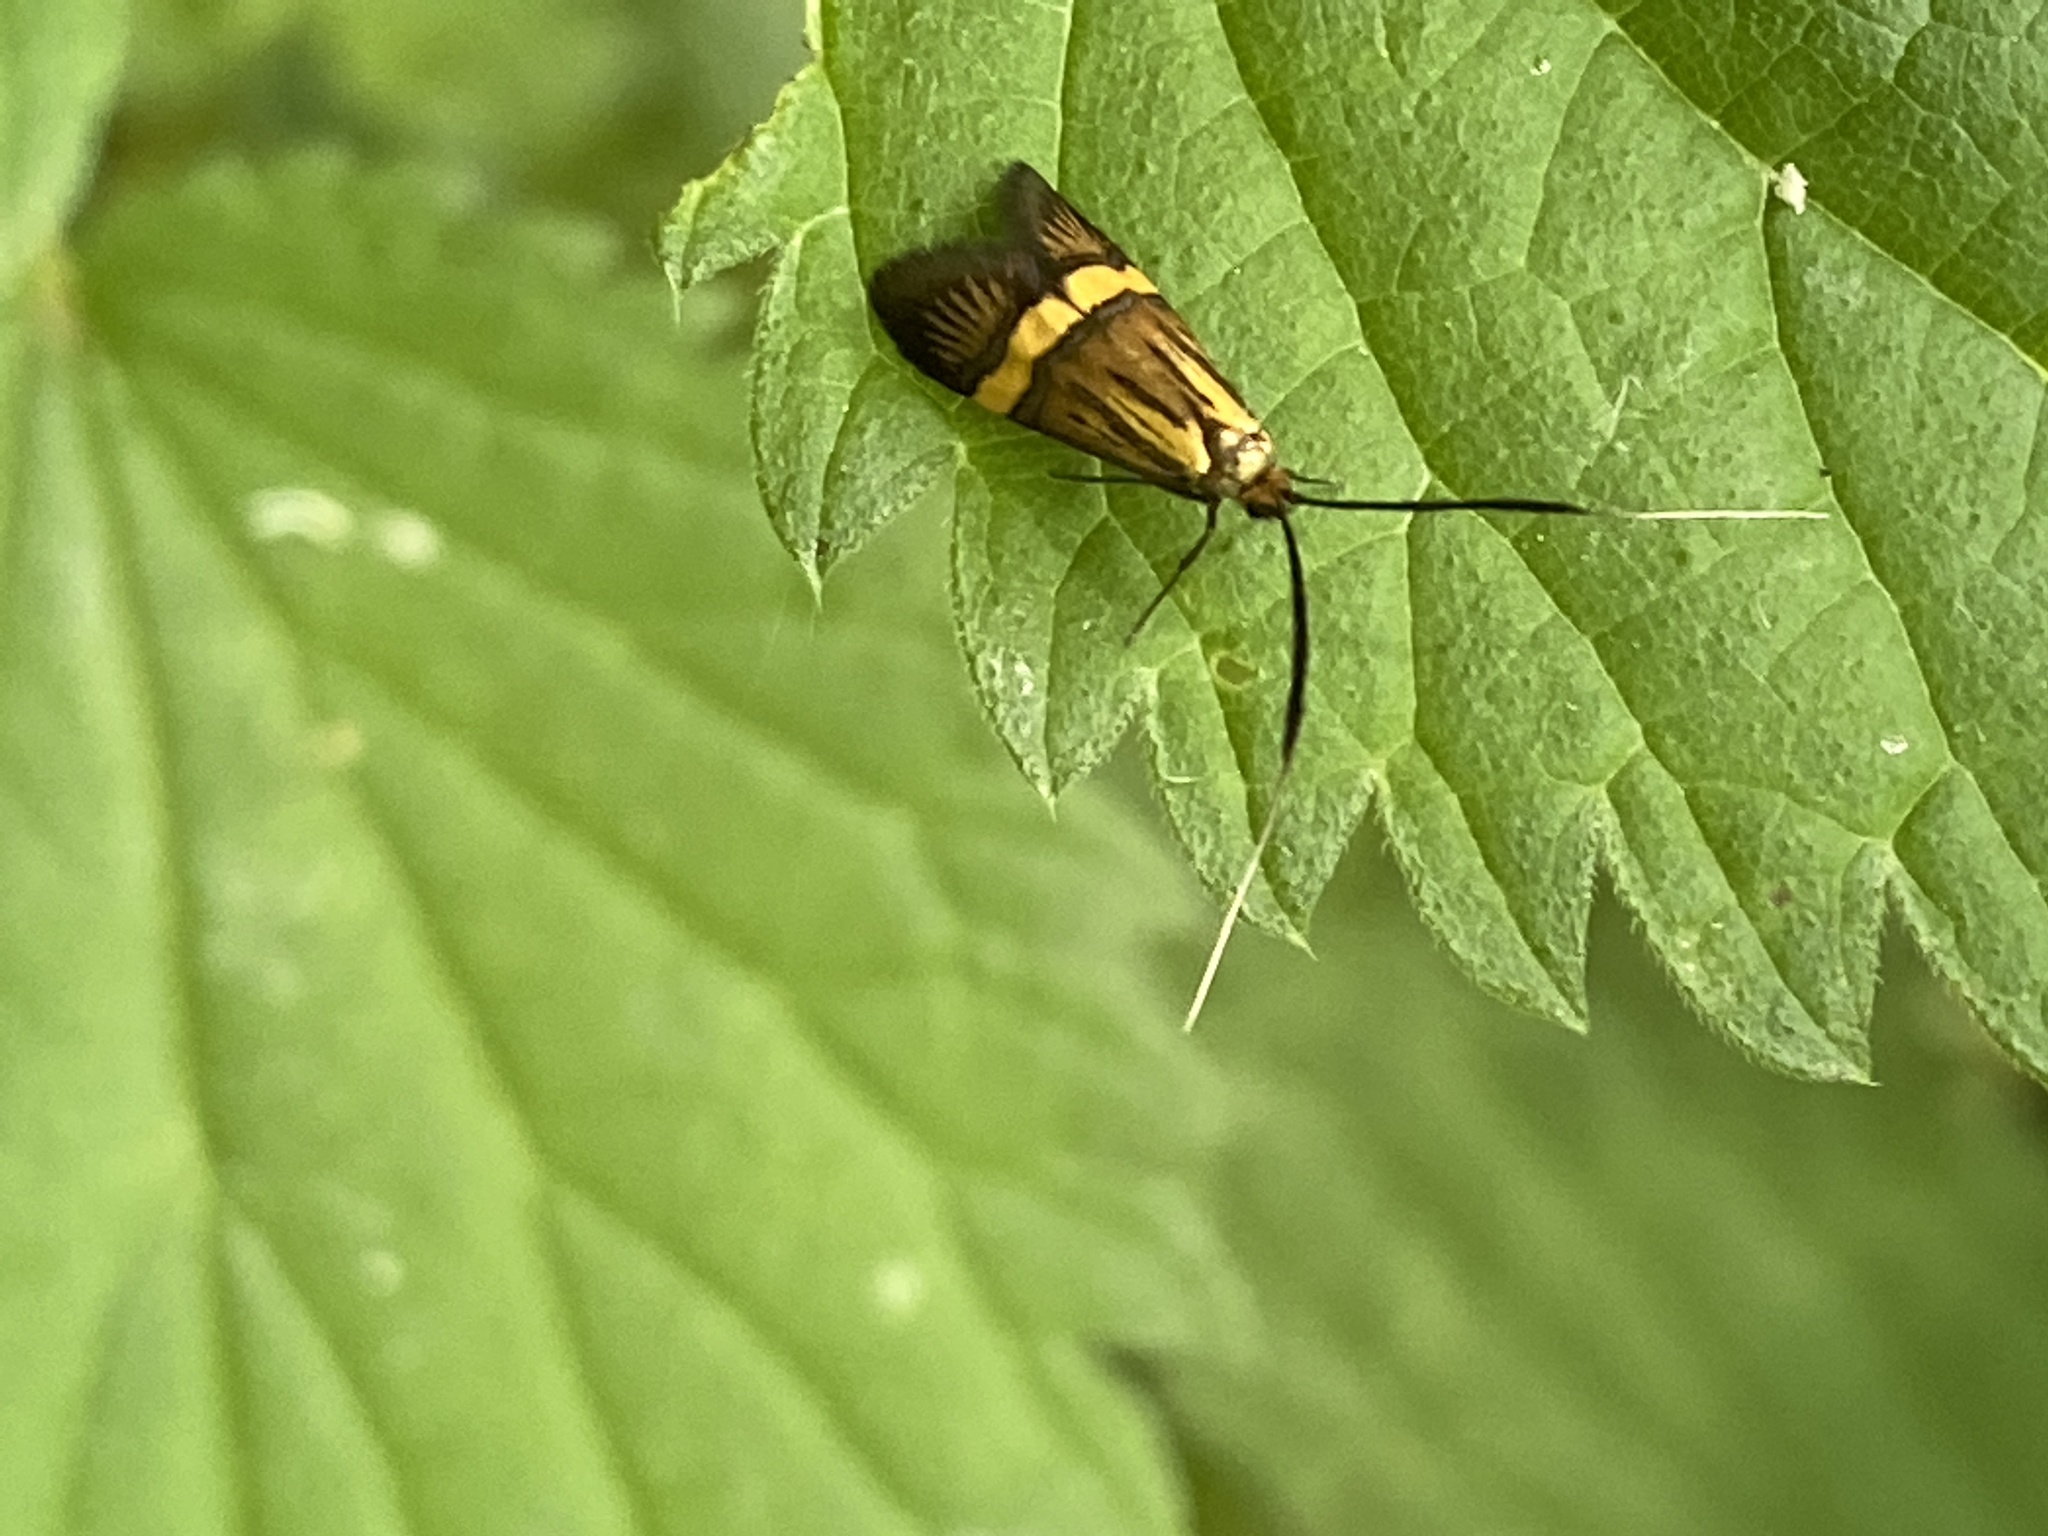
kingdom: Animalia
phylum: Arthropoda
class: Insecta
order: Lepidoptera
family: Adelidae
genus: Nemophora
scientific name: Nemophora
